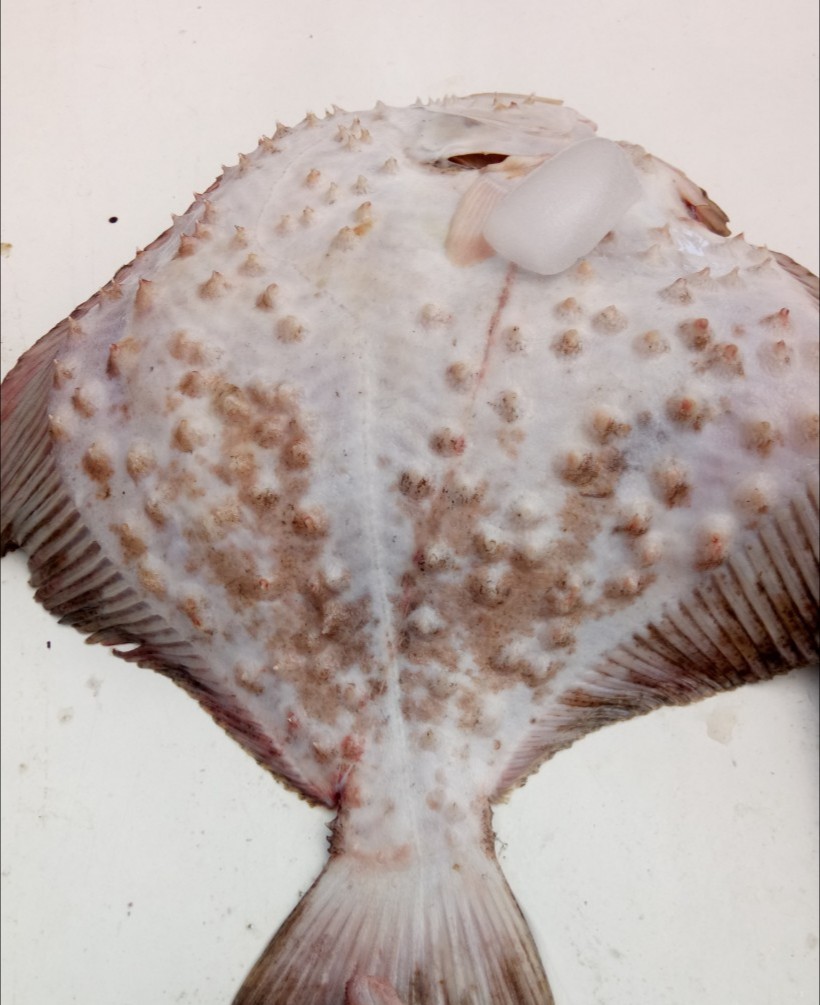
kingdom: Animalia
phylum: Chordata
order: Pleuronectiformes
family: Scophthalmidae
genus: Scophthalmus
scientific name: Scophthalmus maeoticus
